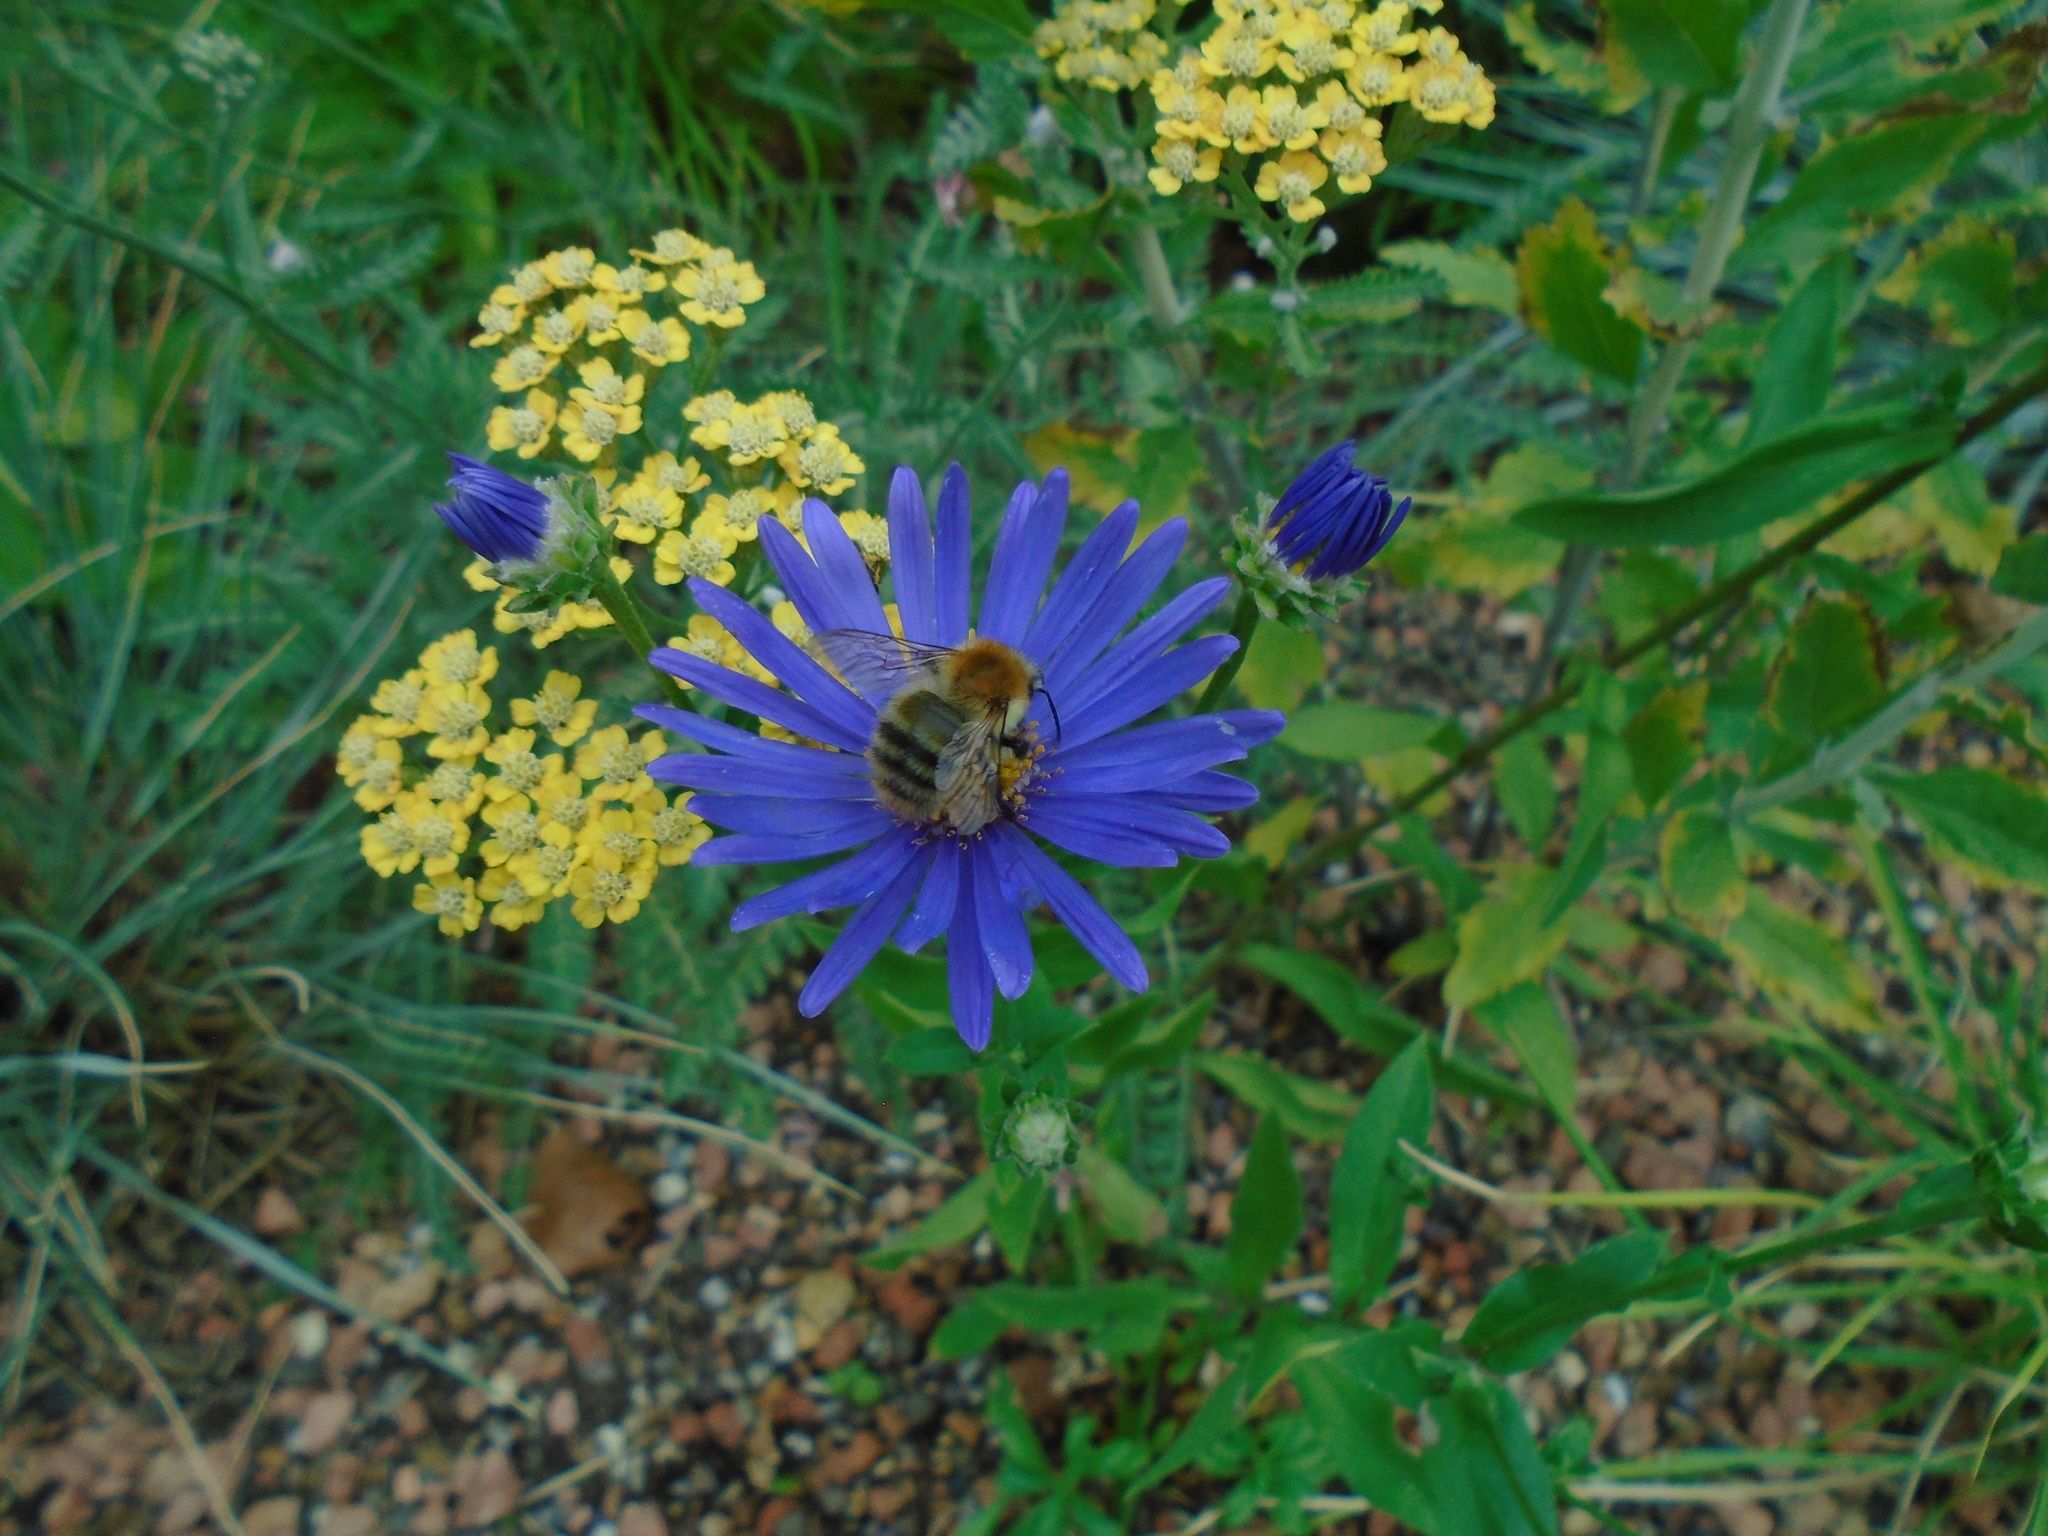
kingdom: Animalia
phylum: Arthropoda
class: Insecta
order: Hymenoptera
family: Apidae
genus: Bombus
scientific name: Bombus pascuorum
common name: Common carder bee
